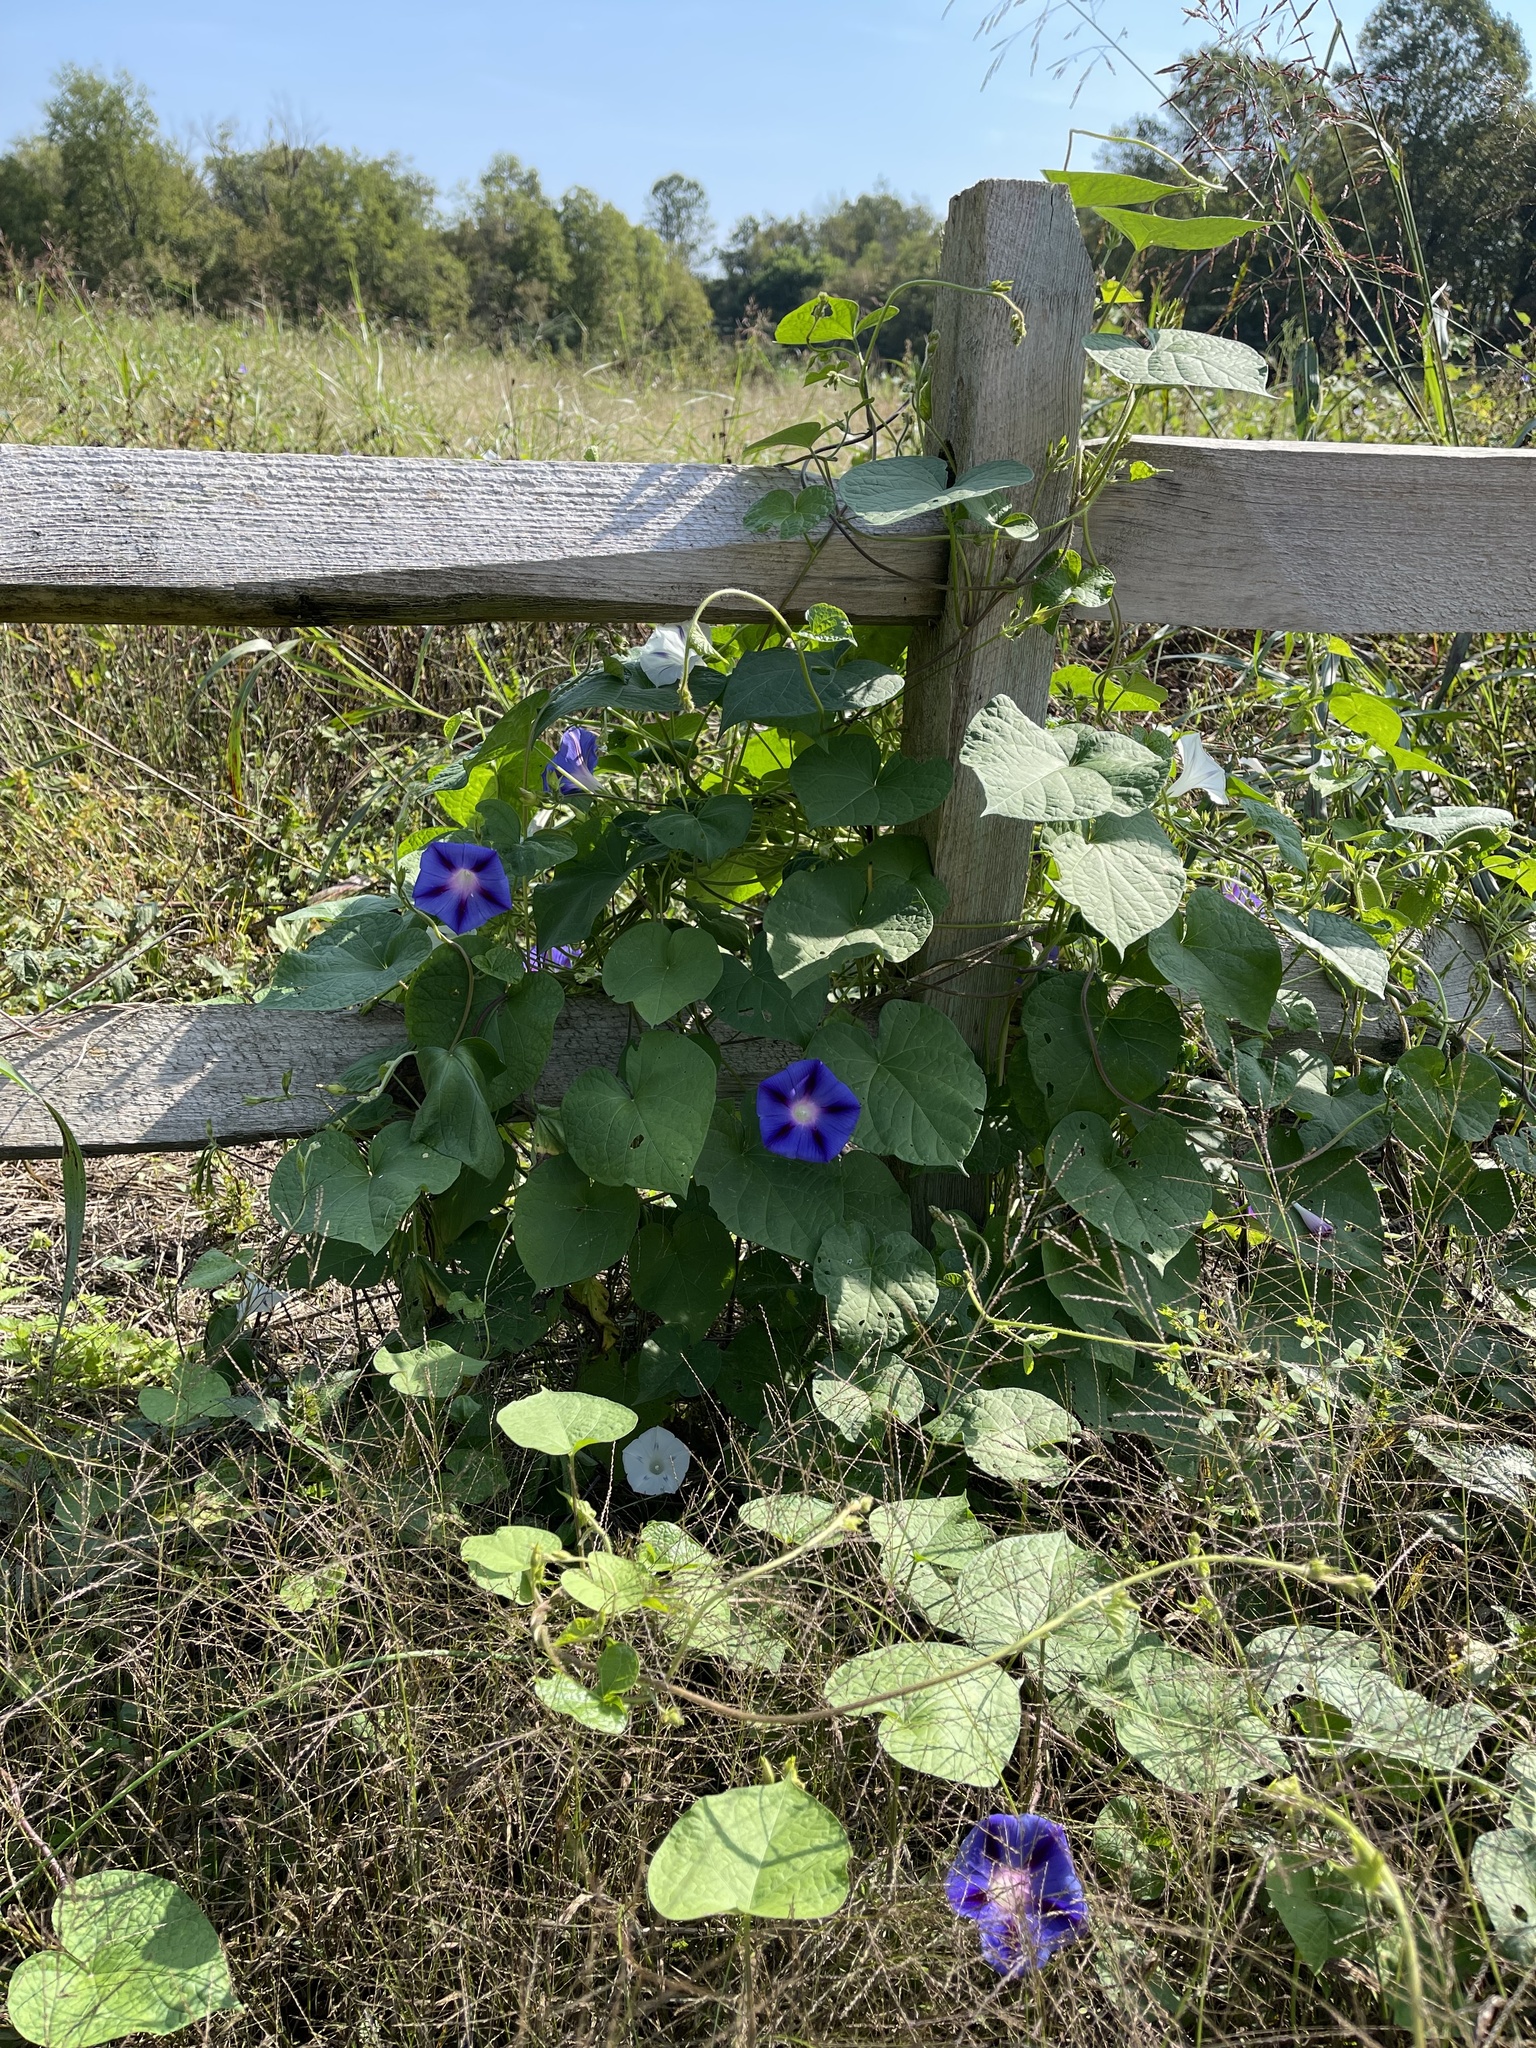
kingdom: Plantae
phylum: Tracheophyta
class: Magnoliopsida
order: Solanales
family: Convolvulaceae
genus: Ipomoea
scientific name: Ipomoea purpurea
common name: Common morning-glory
